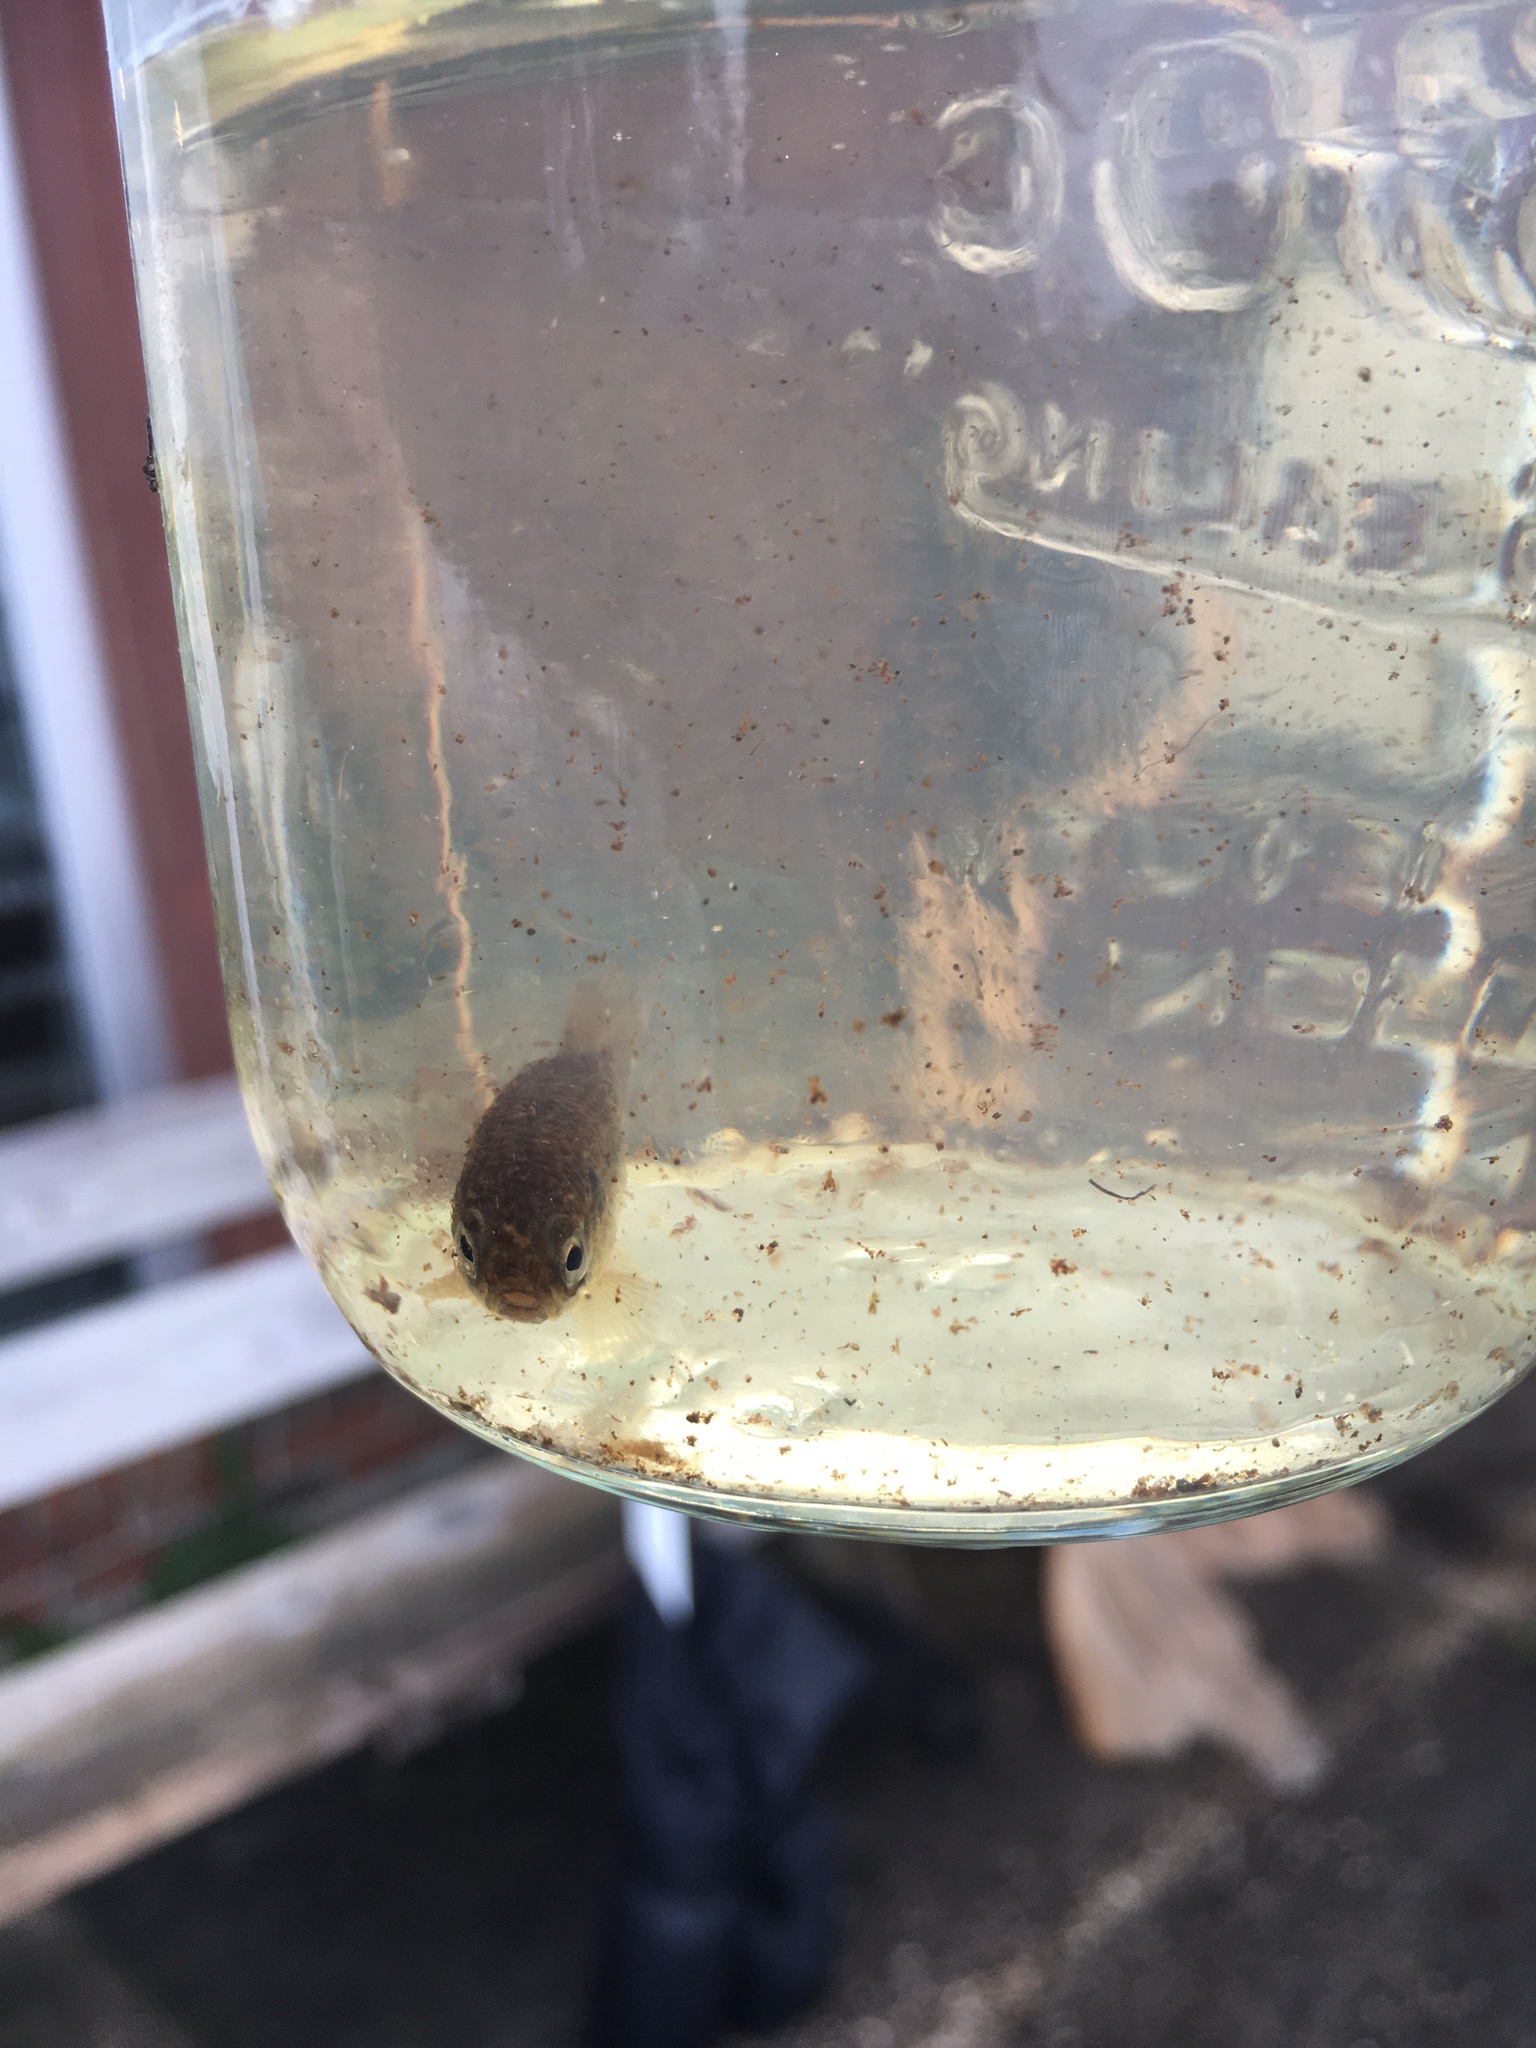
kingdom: Animalia
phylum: Chordata
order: Esociformes
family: Umbridae
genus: Umbra
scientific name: Umbra limi
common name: Central mudminnow
